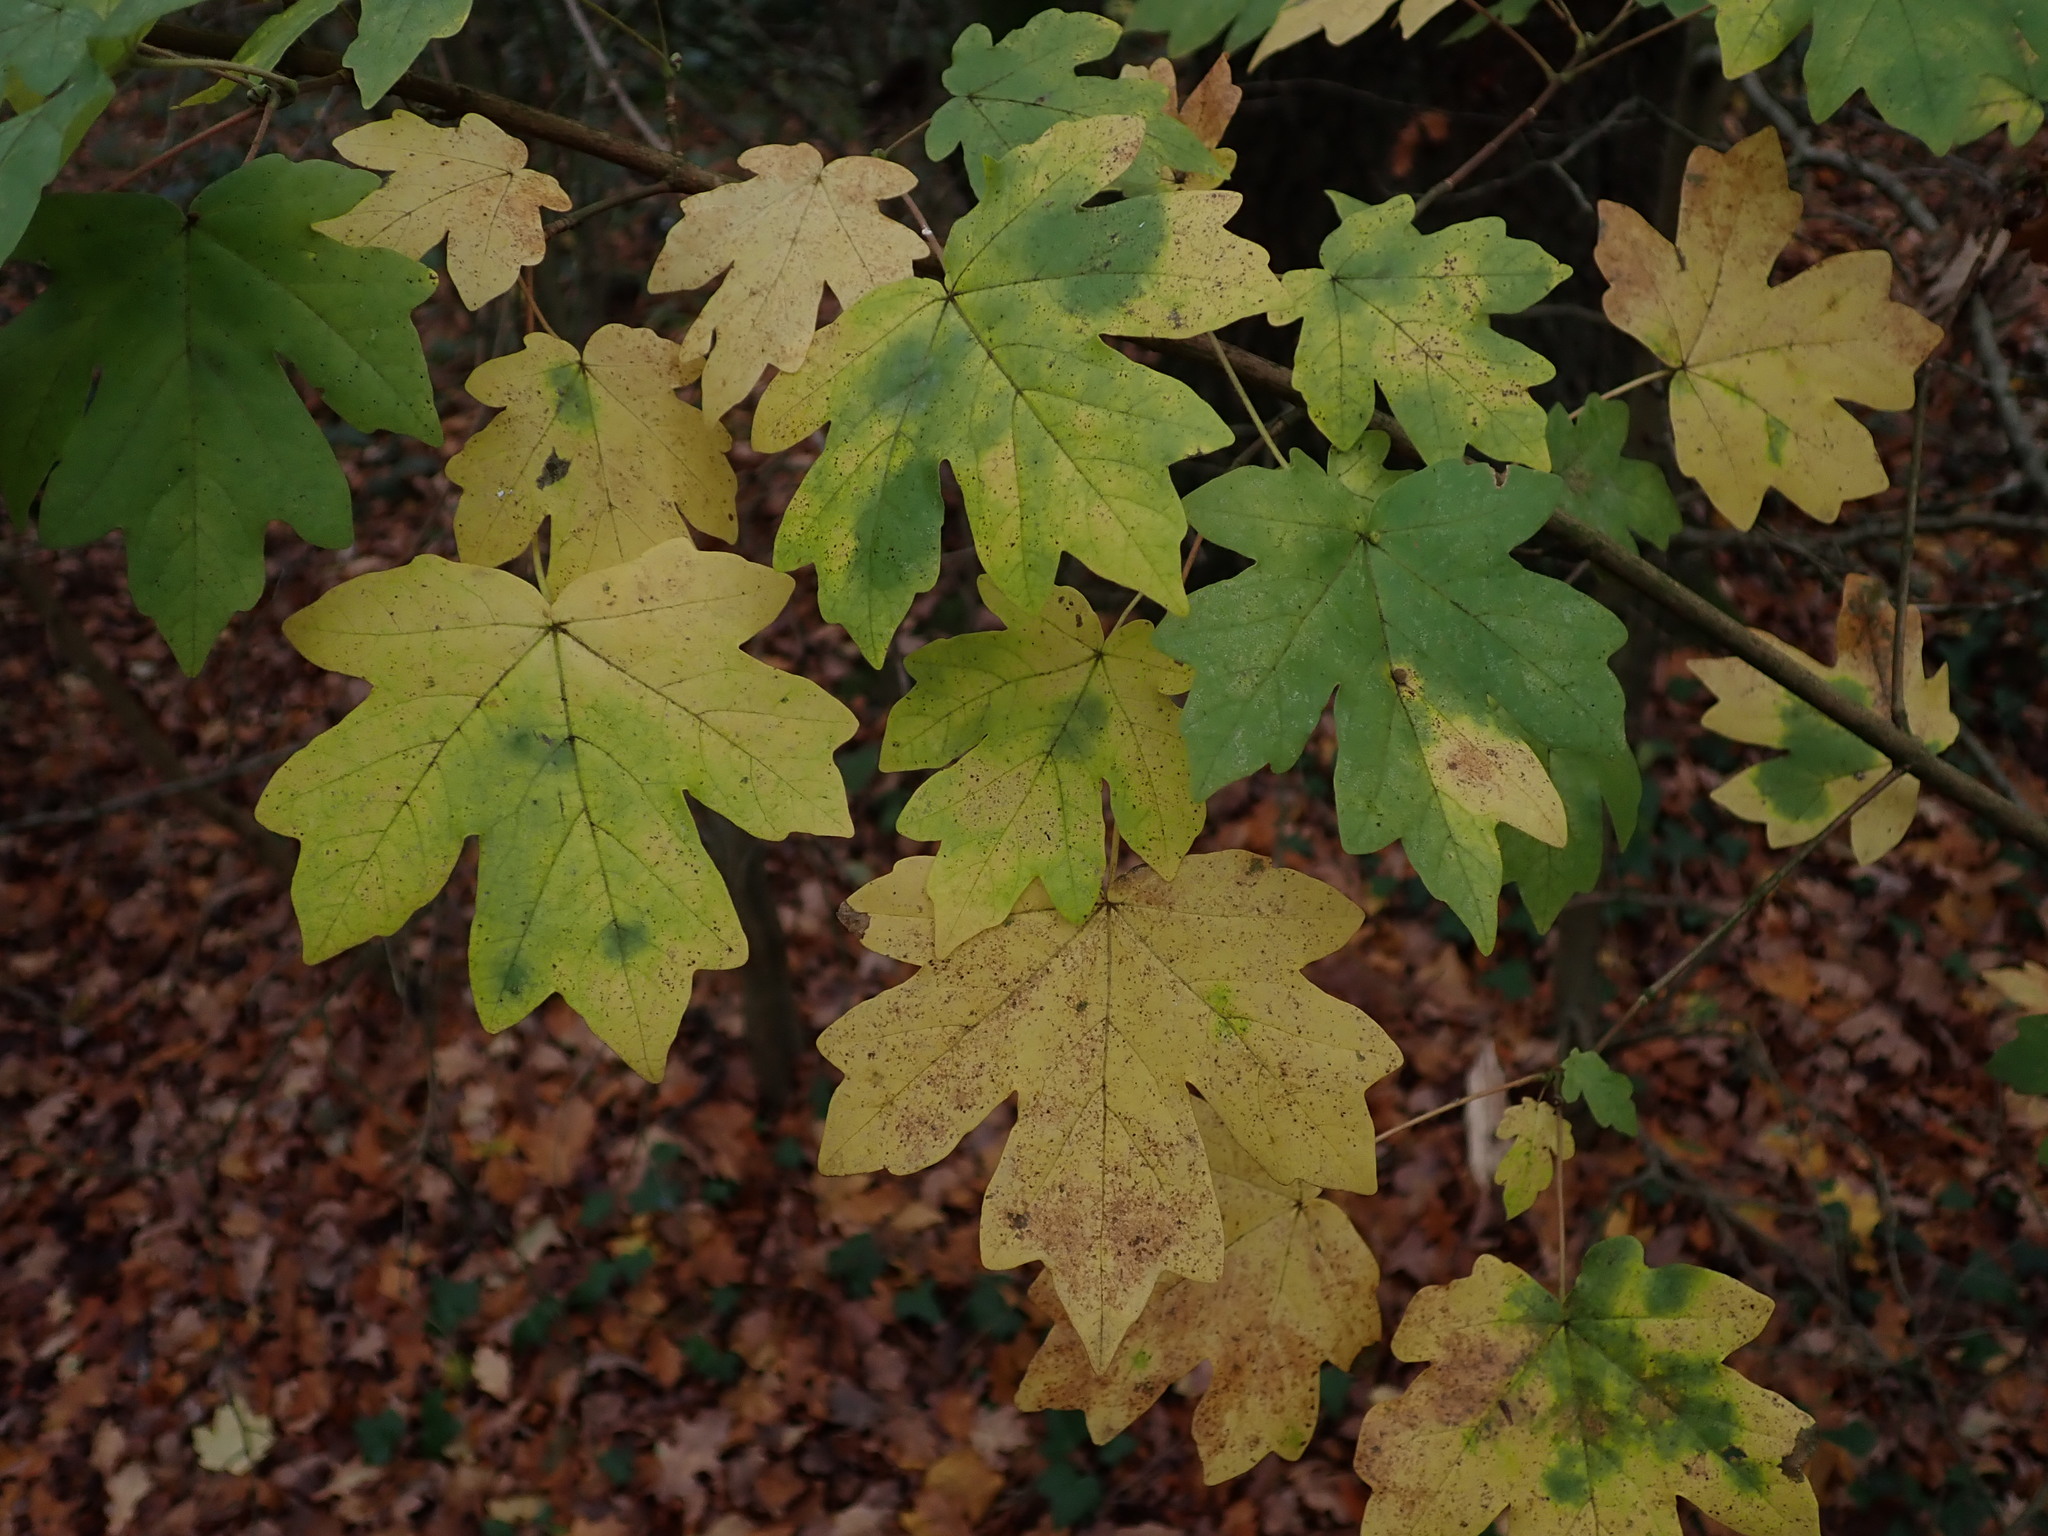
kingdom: Plantae
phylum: Tracheophyta
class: Magnoliopsida
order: Sapindales
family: Sapindaceae
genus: Acer
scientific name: Acer campestre
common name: Field maple
